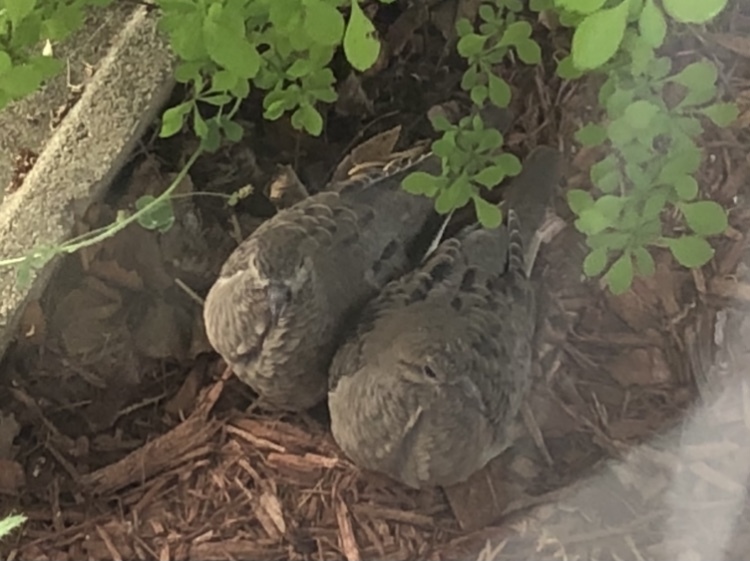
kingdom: Animalia
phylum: Chordata
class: Aves
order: Columbiformes
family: Columbidae
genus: Zenaida
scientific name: Zenaida macroura
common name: Mourning dove
